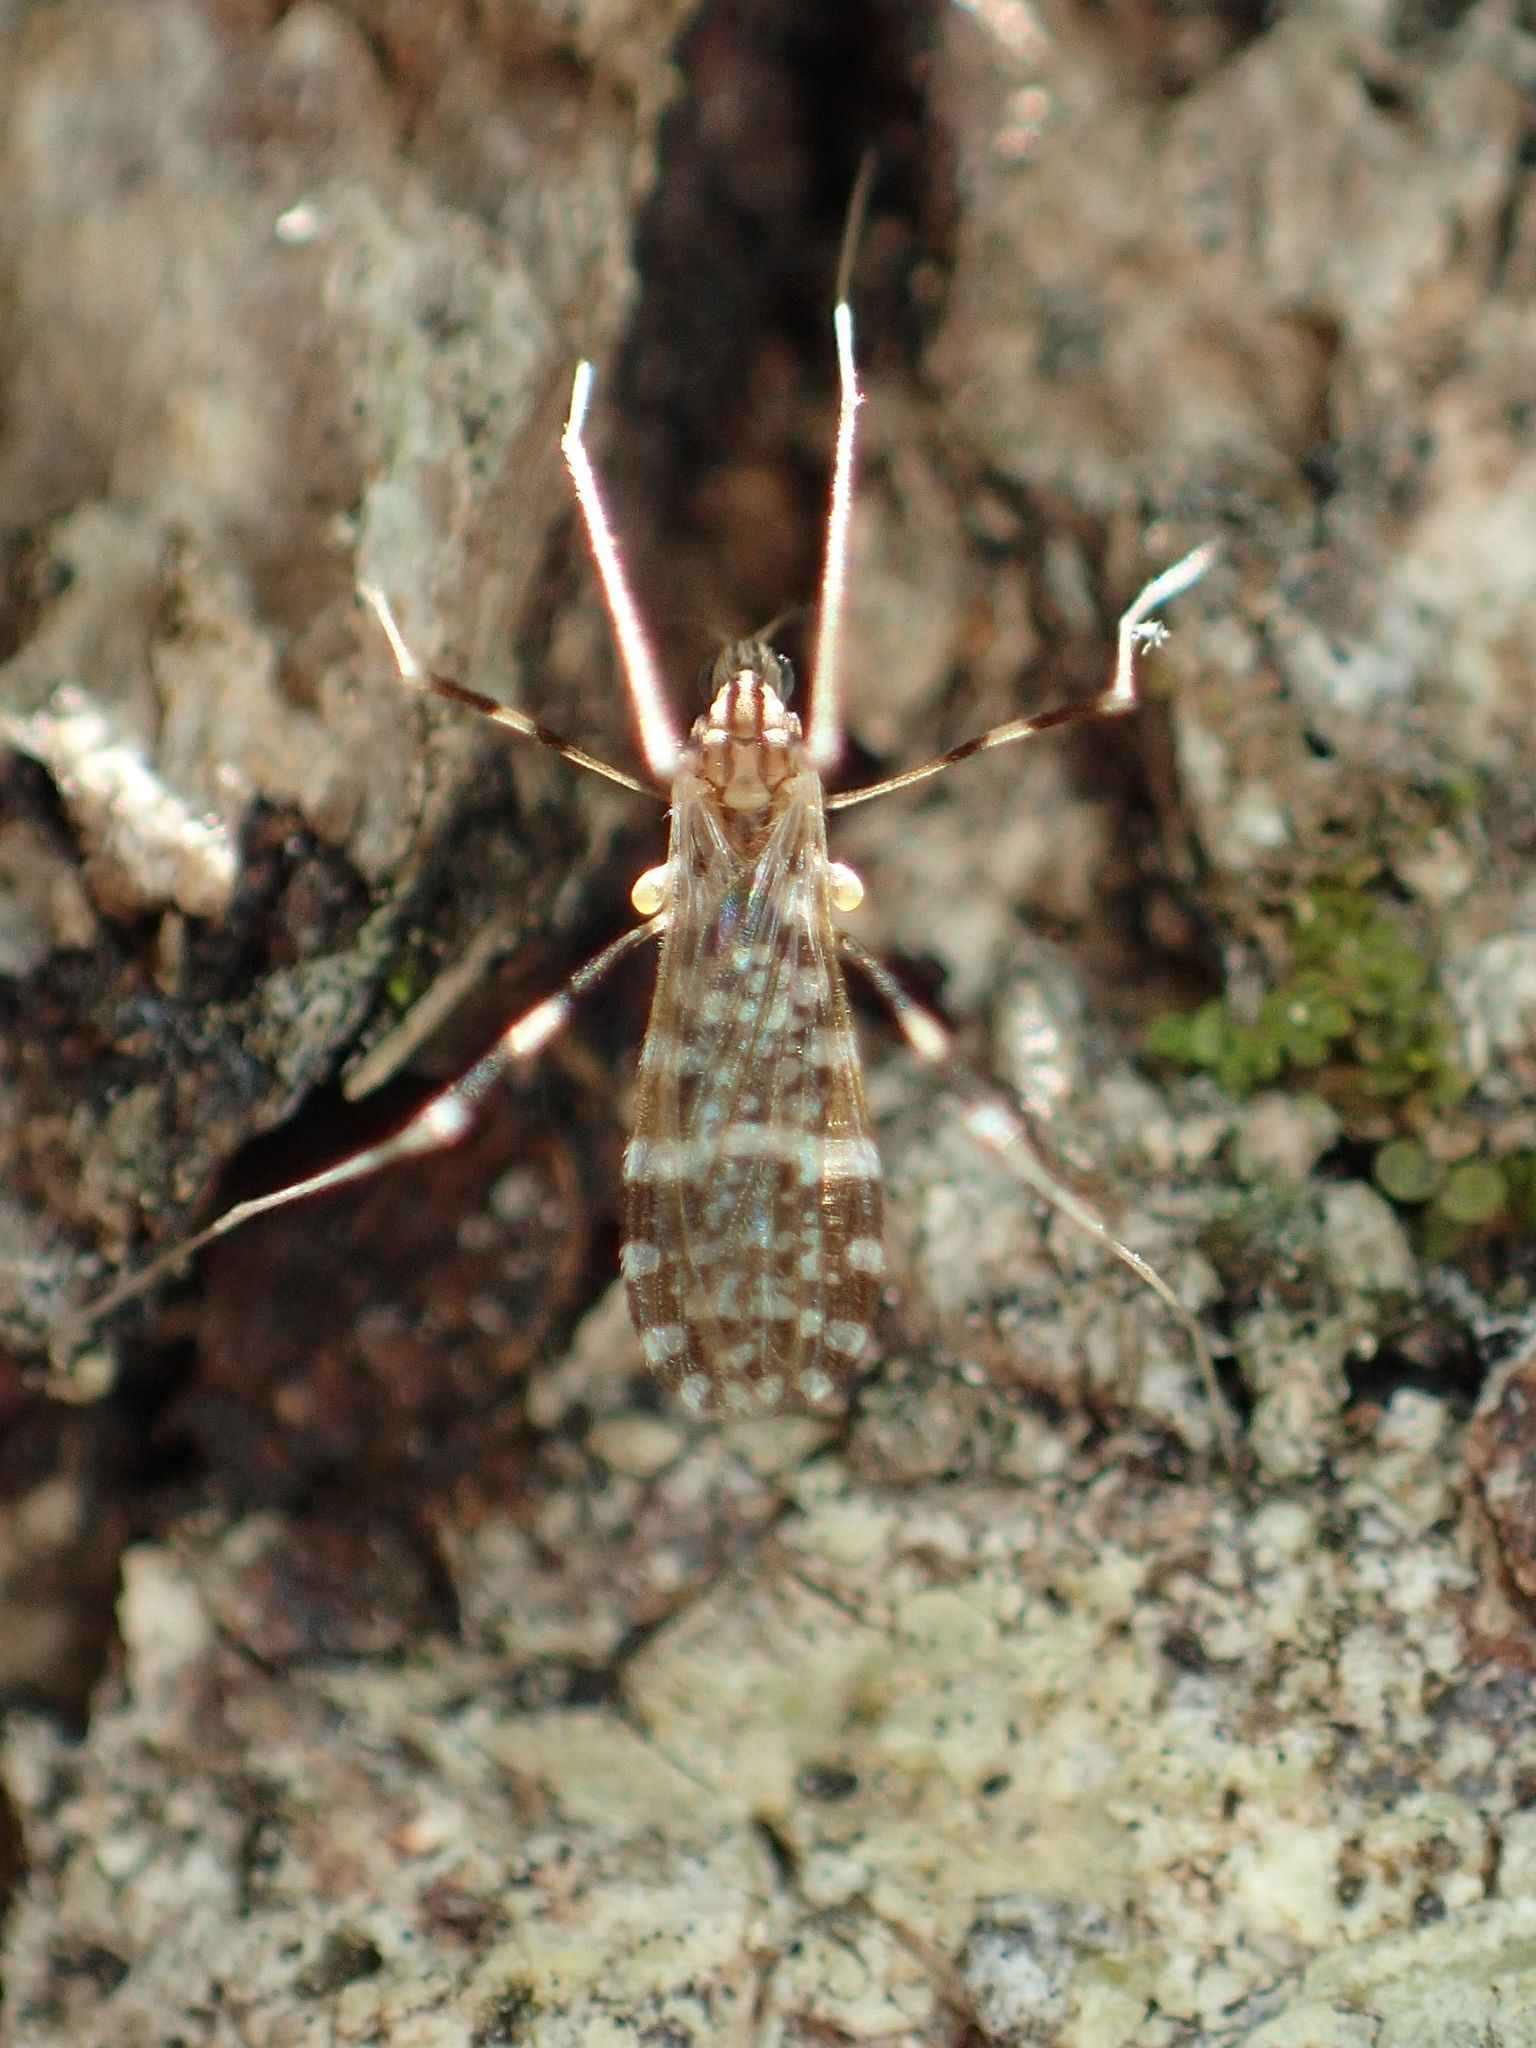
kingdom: Animalia
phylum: Arthropoda
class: Insecta
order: Diptera
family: Limoniidae
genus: Erioptera
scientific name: Erioptera caliptera
